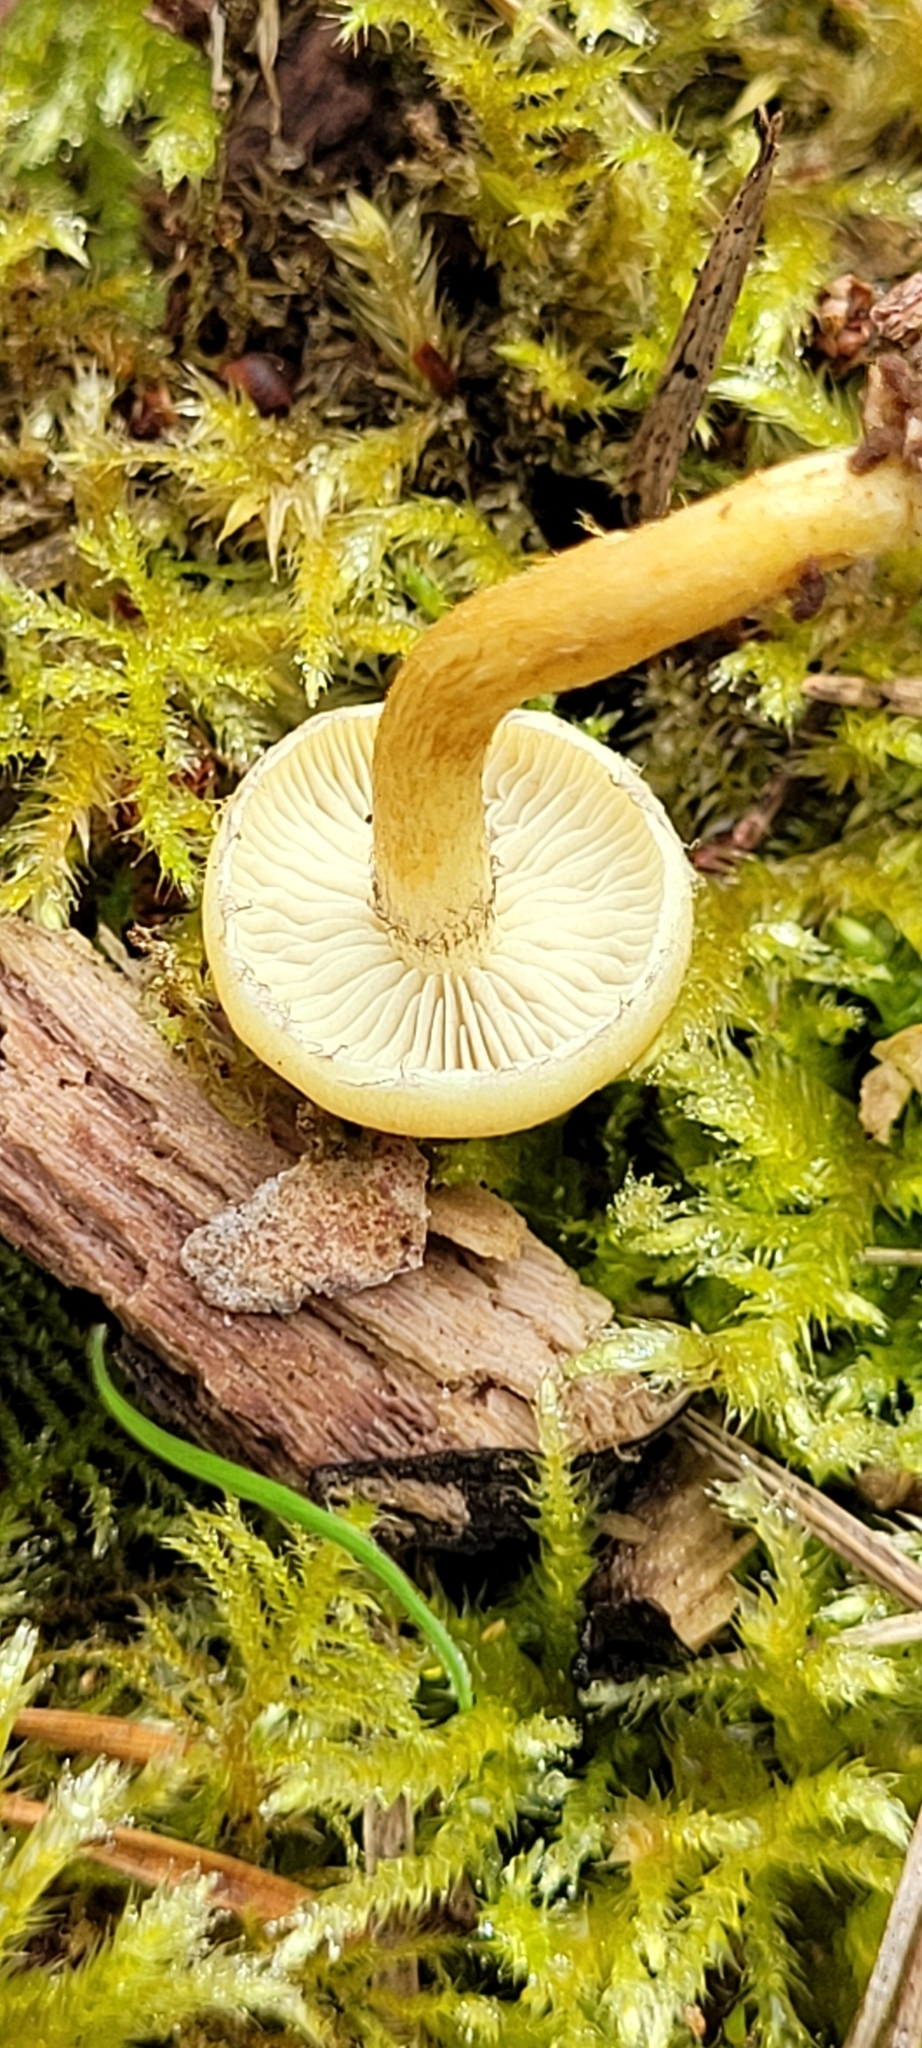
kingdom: Fungi
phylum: Basidiomycota
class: Agaricomycetes
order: Agaricales
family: Strophariaceae
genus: Hypholoma
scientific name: Hypholoma fasciculare
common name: Sulphur tuft
